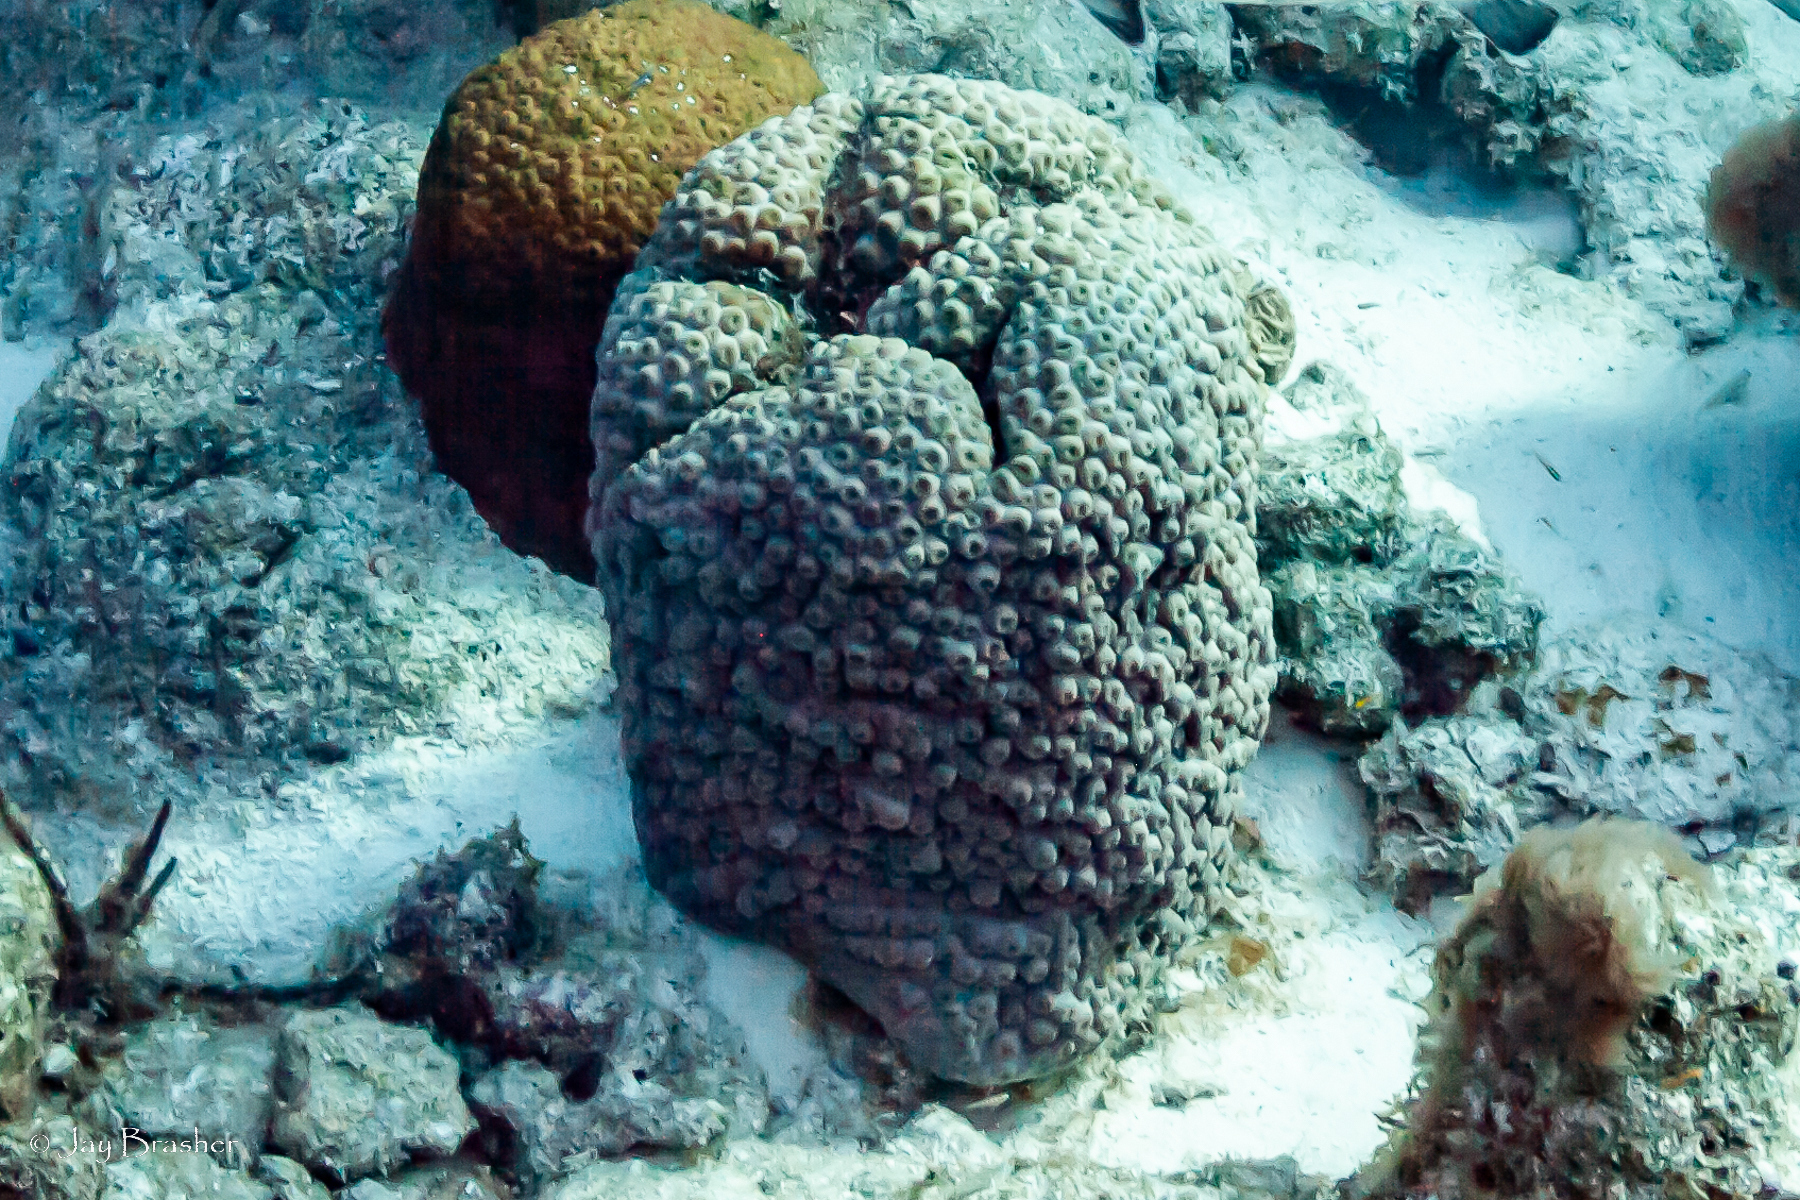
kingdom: Animalia
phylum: Cnidaria
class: Anthozoa
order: Scleractinia
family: Montastraeidae
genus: Montastraea
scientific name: Montastraea cavernosa
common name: Great star coral
